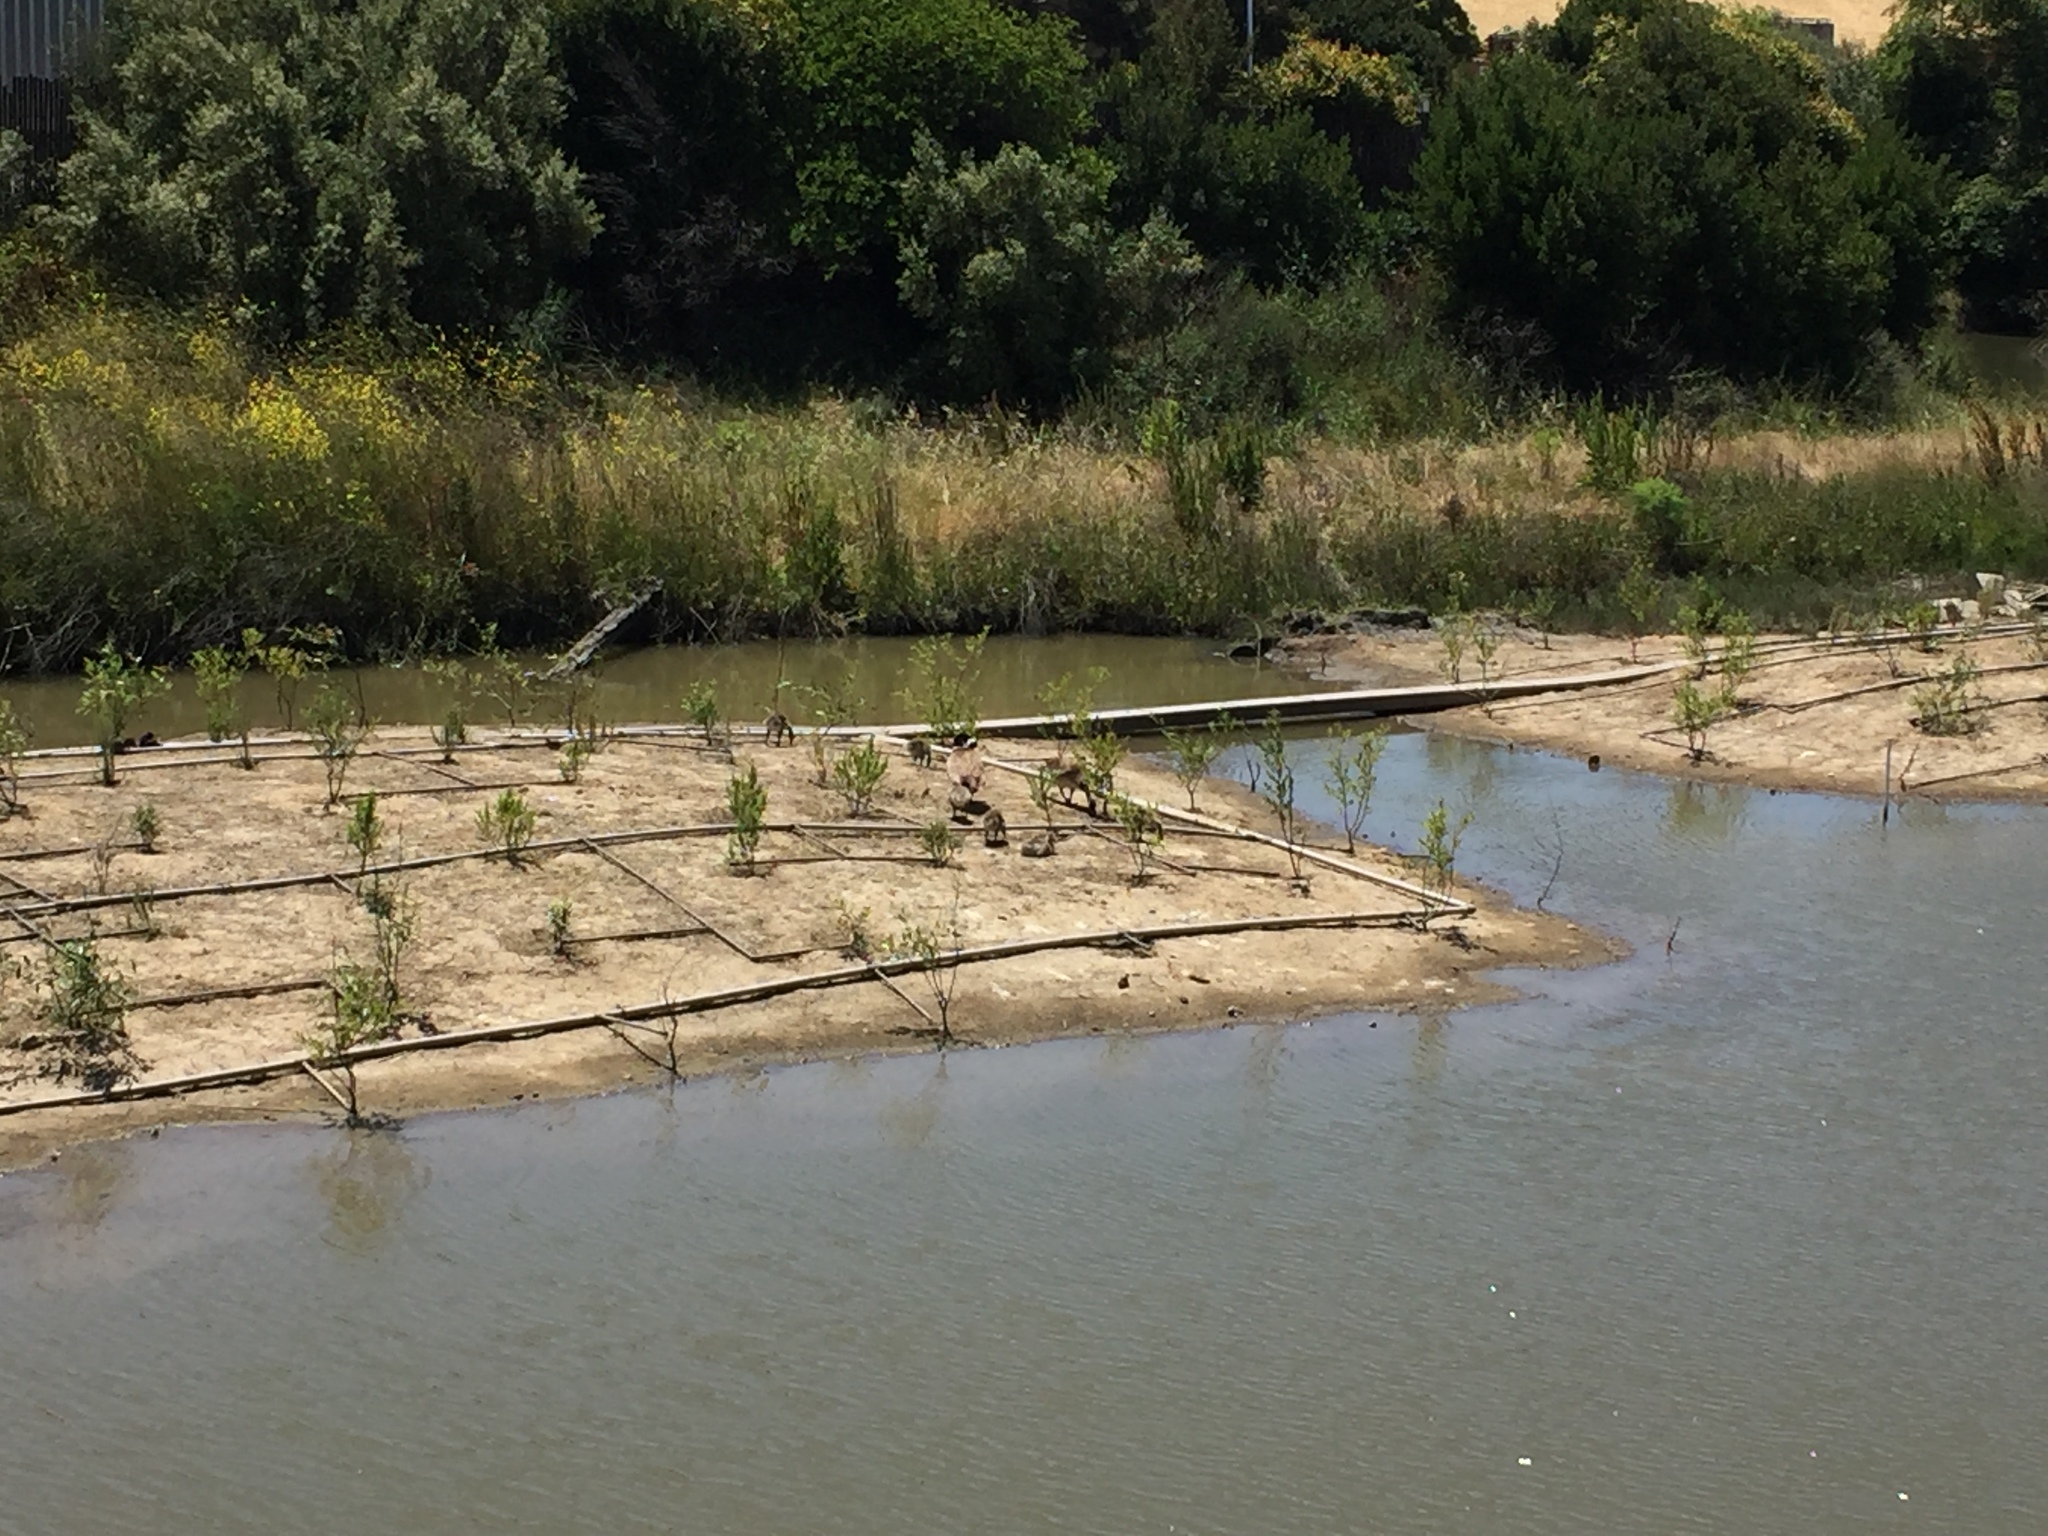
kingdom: Animalia
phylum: Chordata
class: Aves
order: Anseriformes
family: Anatidae
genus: Branta
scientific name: Branta canadensis
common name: Canada goose
